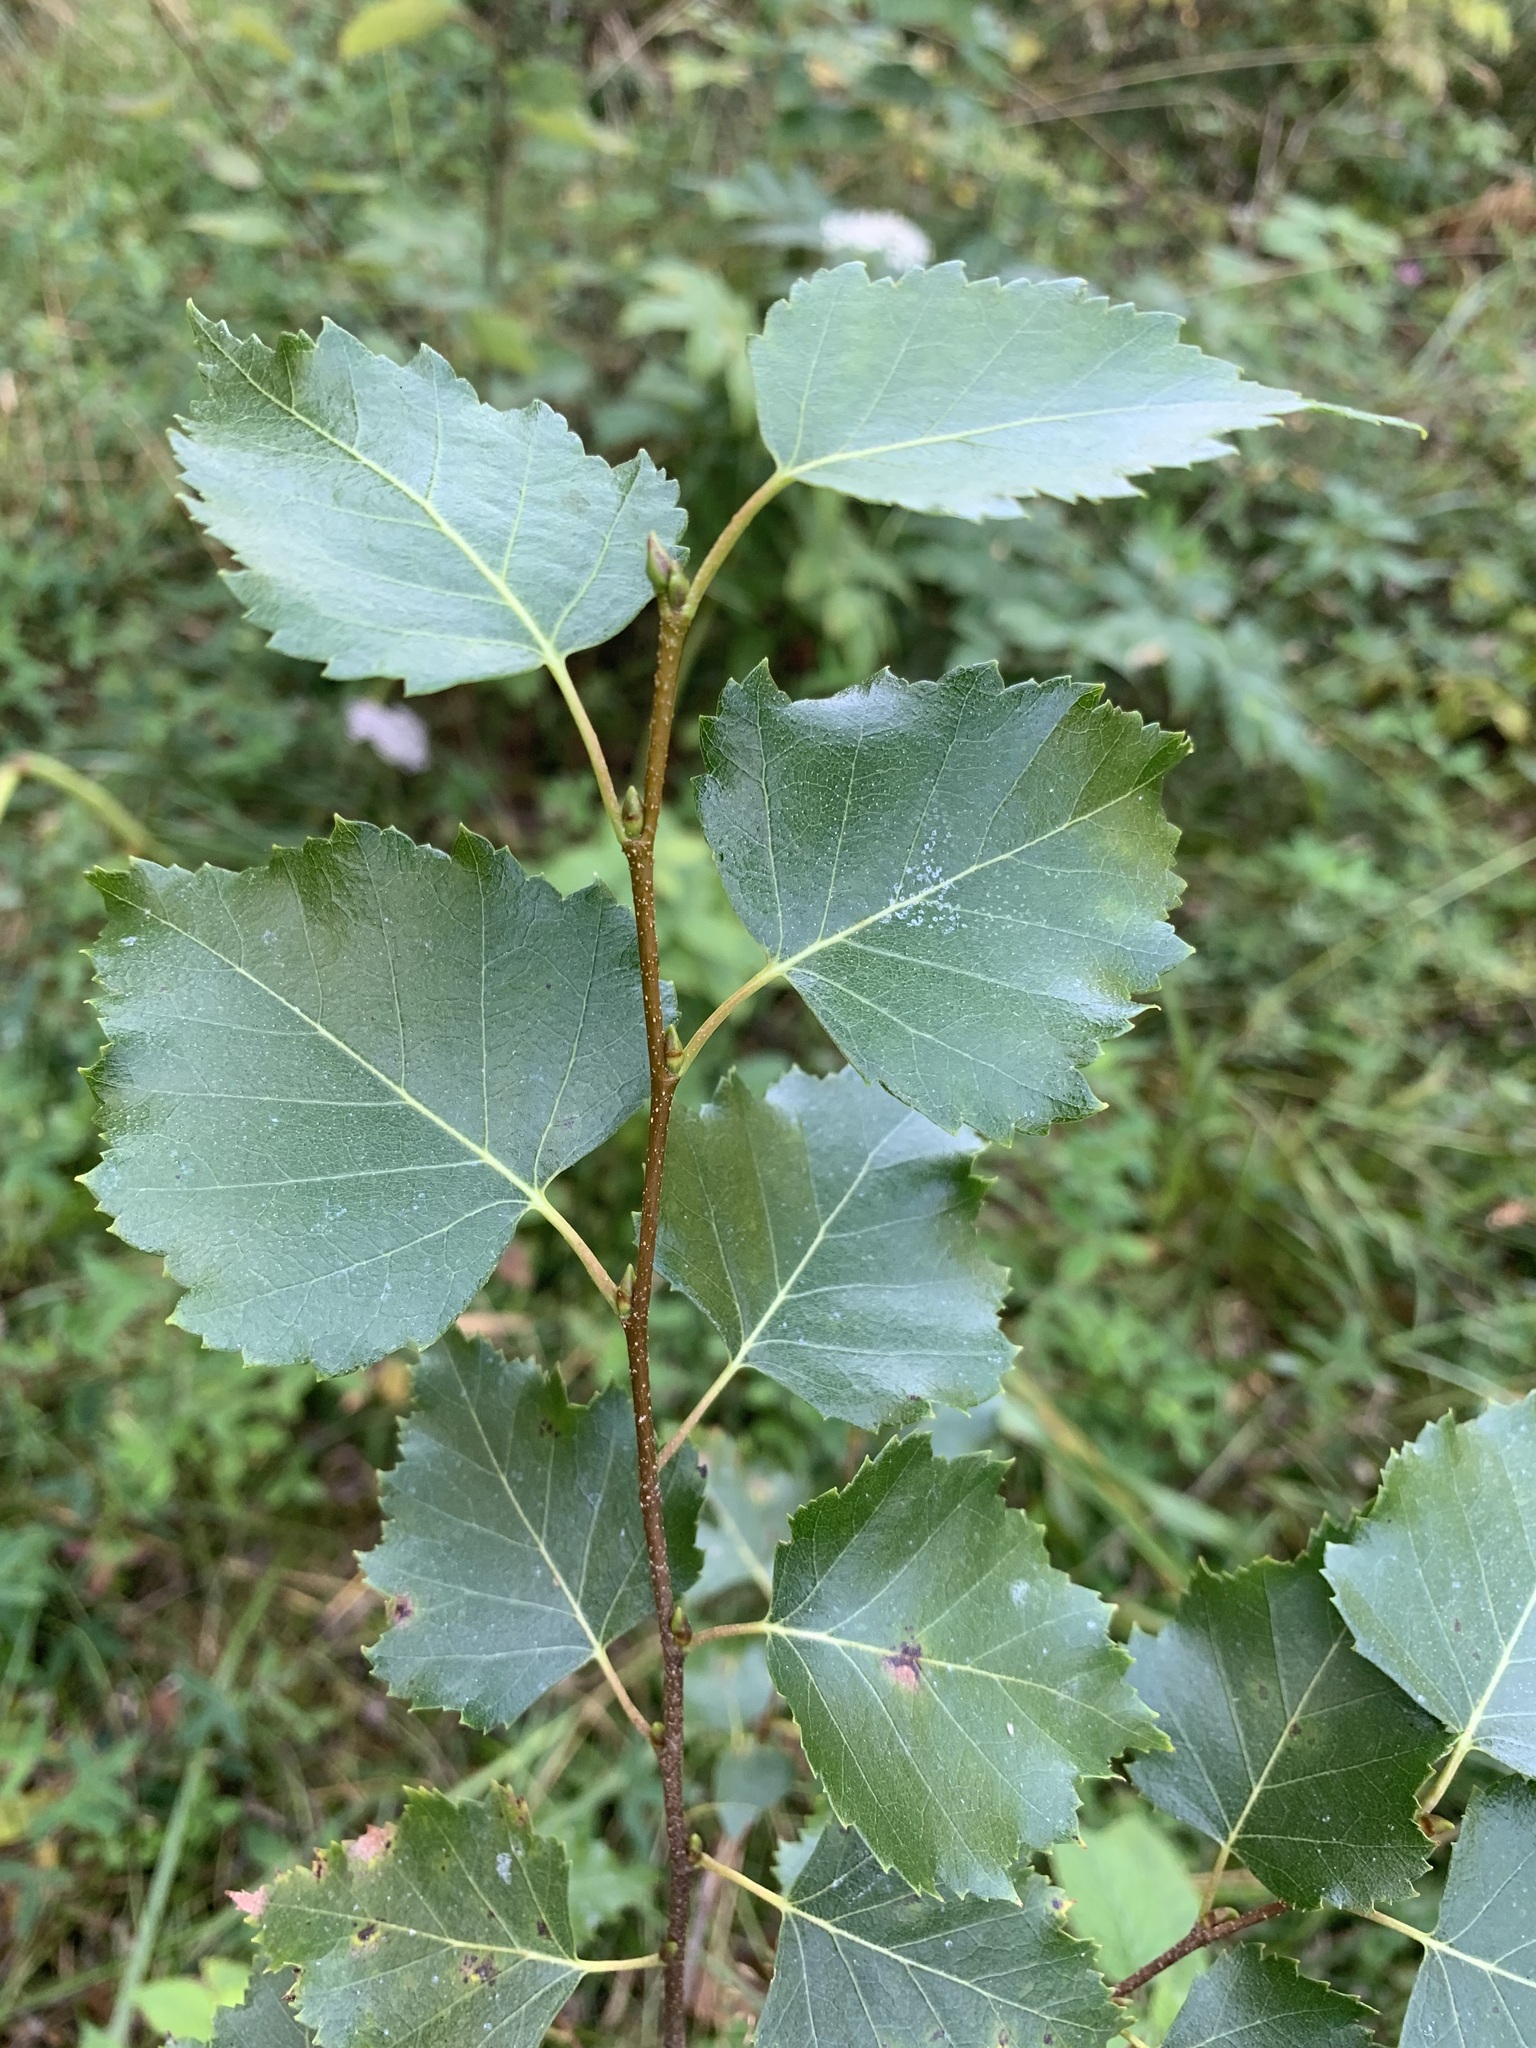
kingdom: Plantae
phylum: Tracheophyta
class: Magnoliopsida
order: Fagales
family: Betulaceae
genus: Betula
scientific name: Betula pendula
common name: Silver birch
